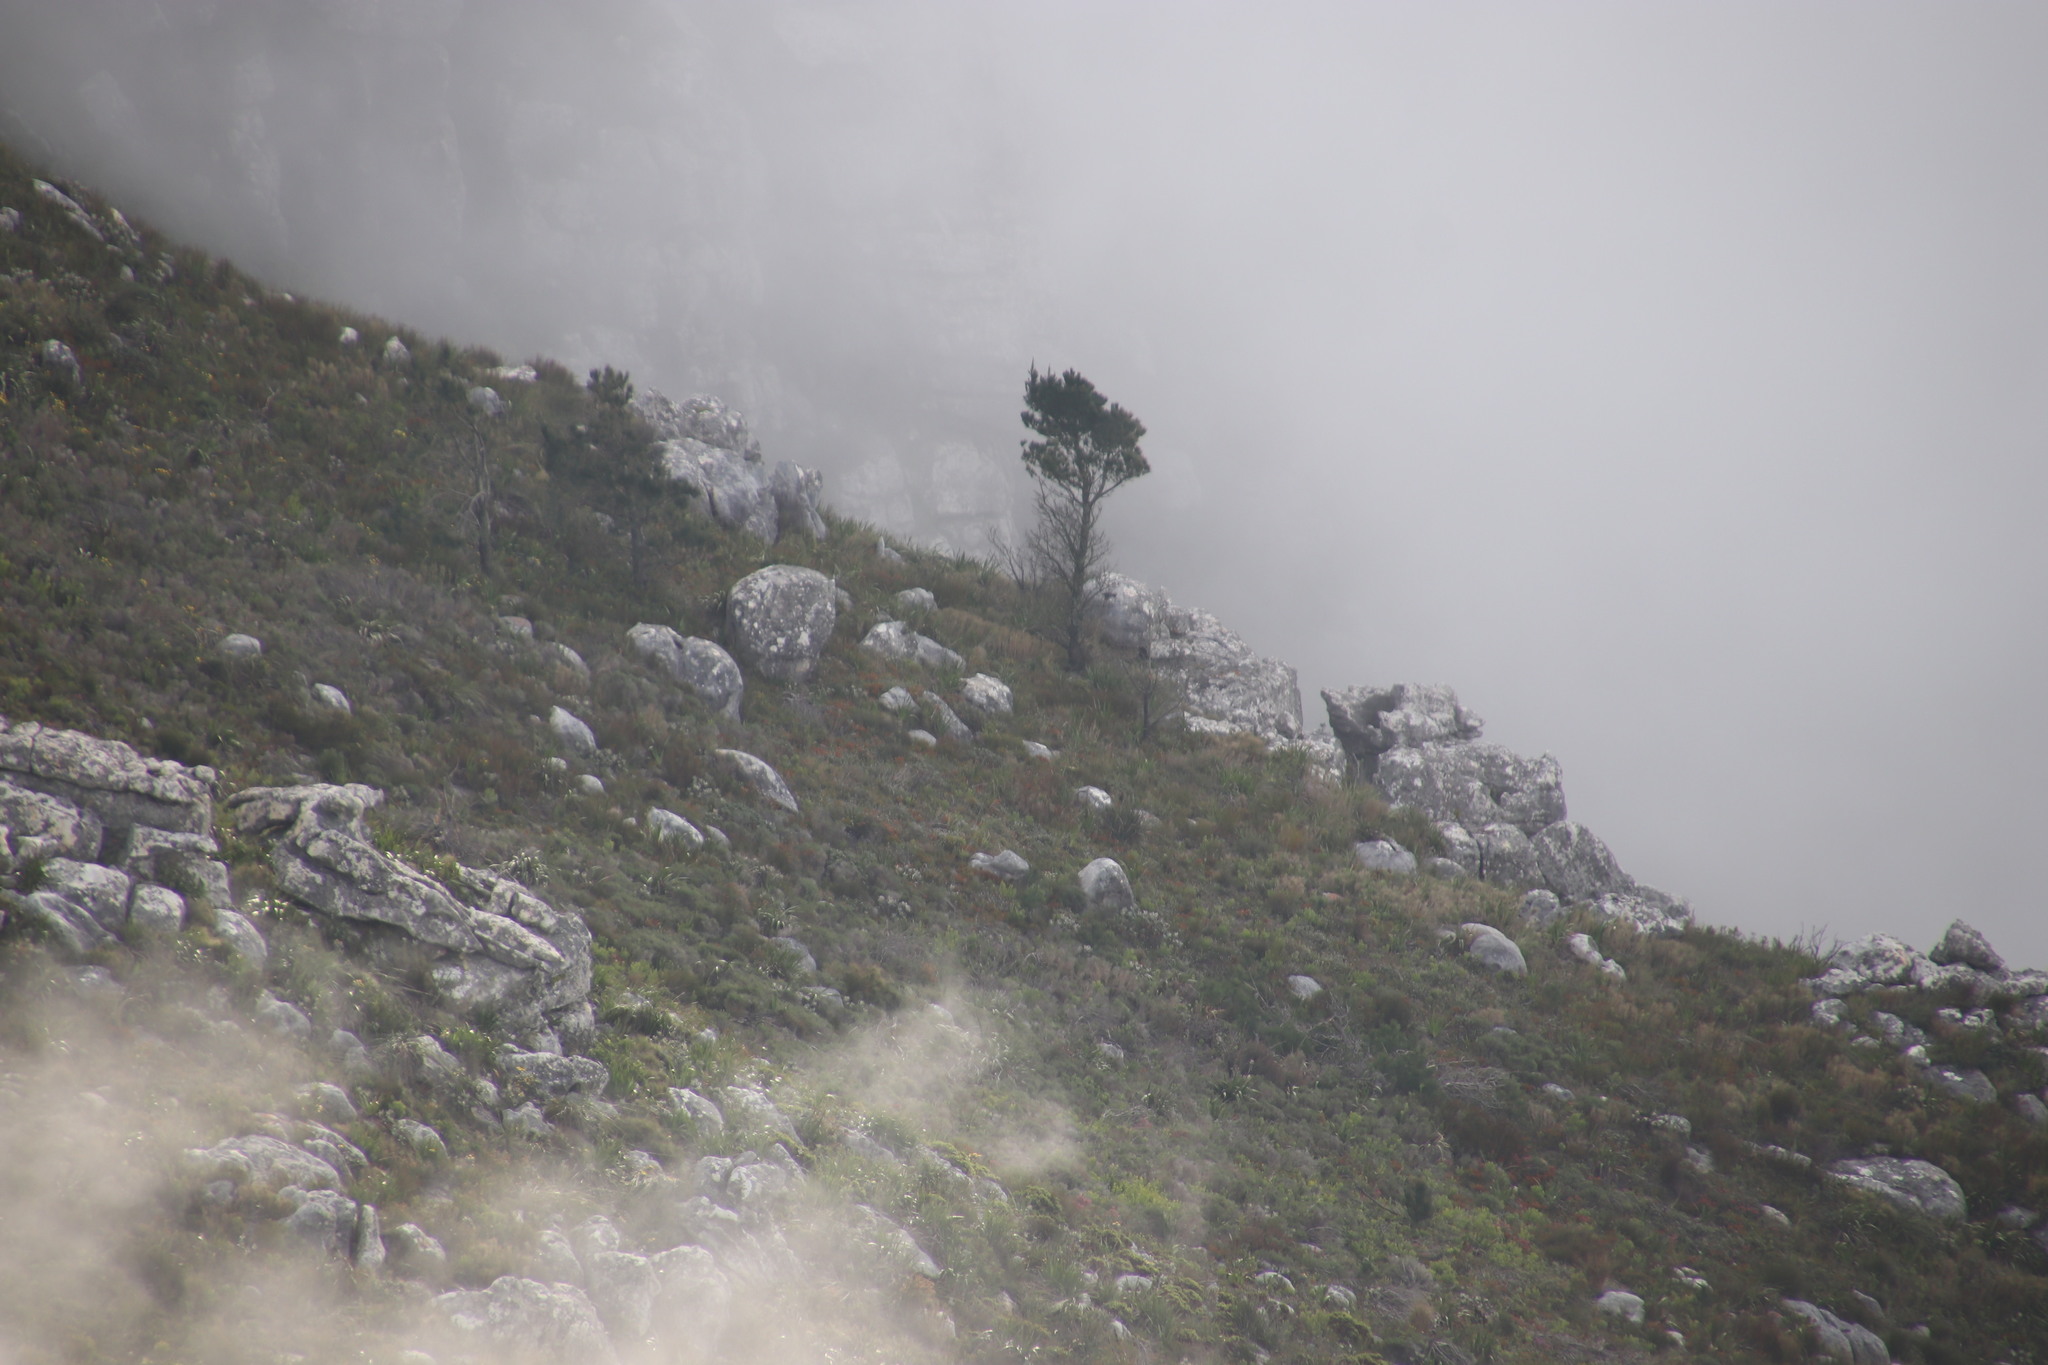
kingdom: Plantae
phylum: Tracheophyta
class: Pinopsida
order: Pinales
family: Pinaceae
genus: Pinus
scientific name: Pinus pinaster
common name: Maritime pine
